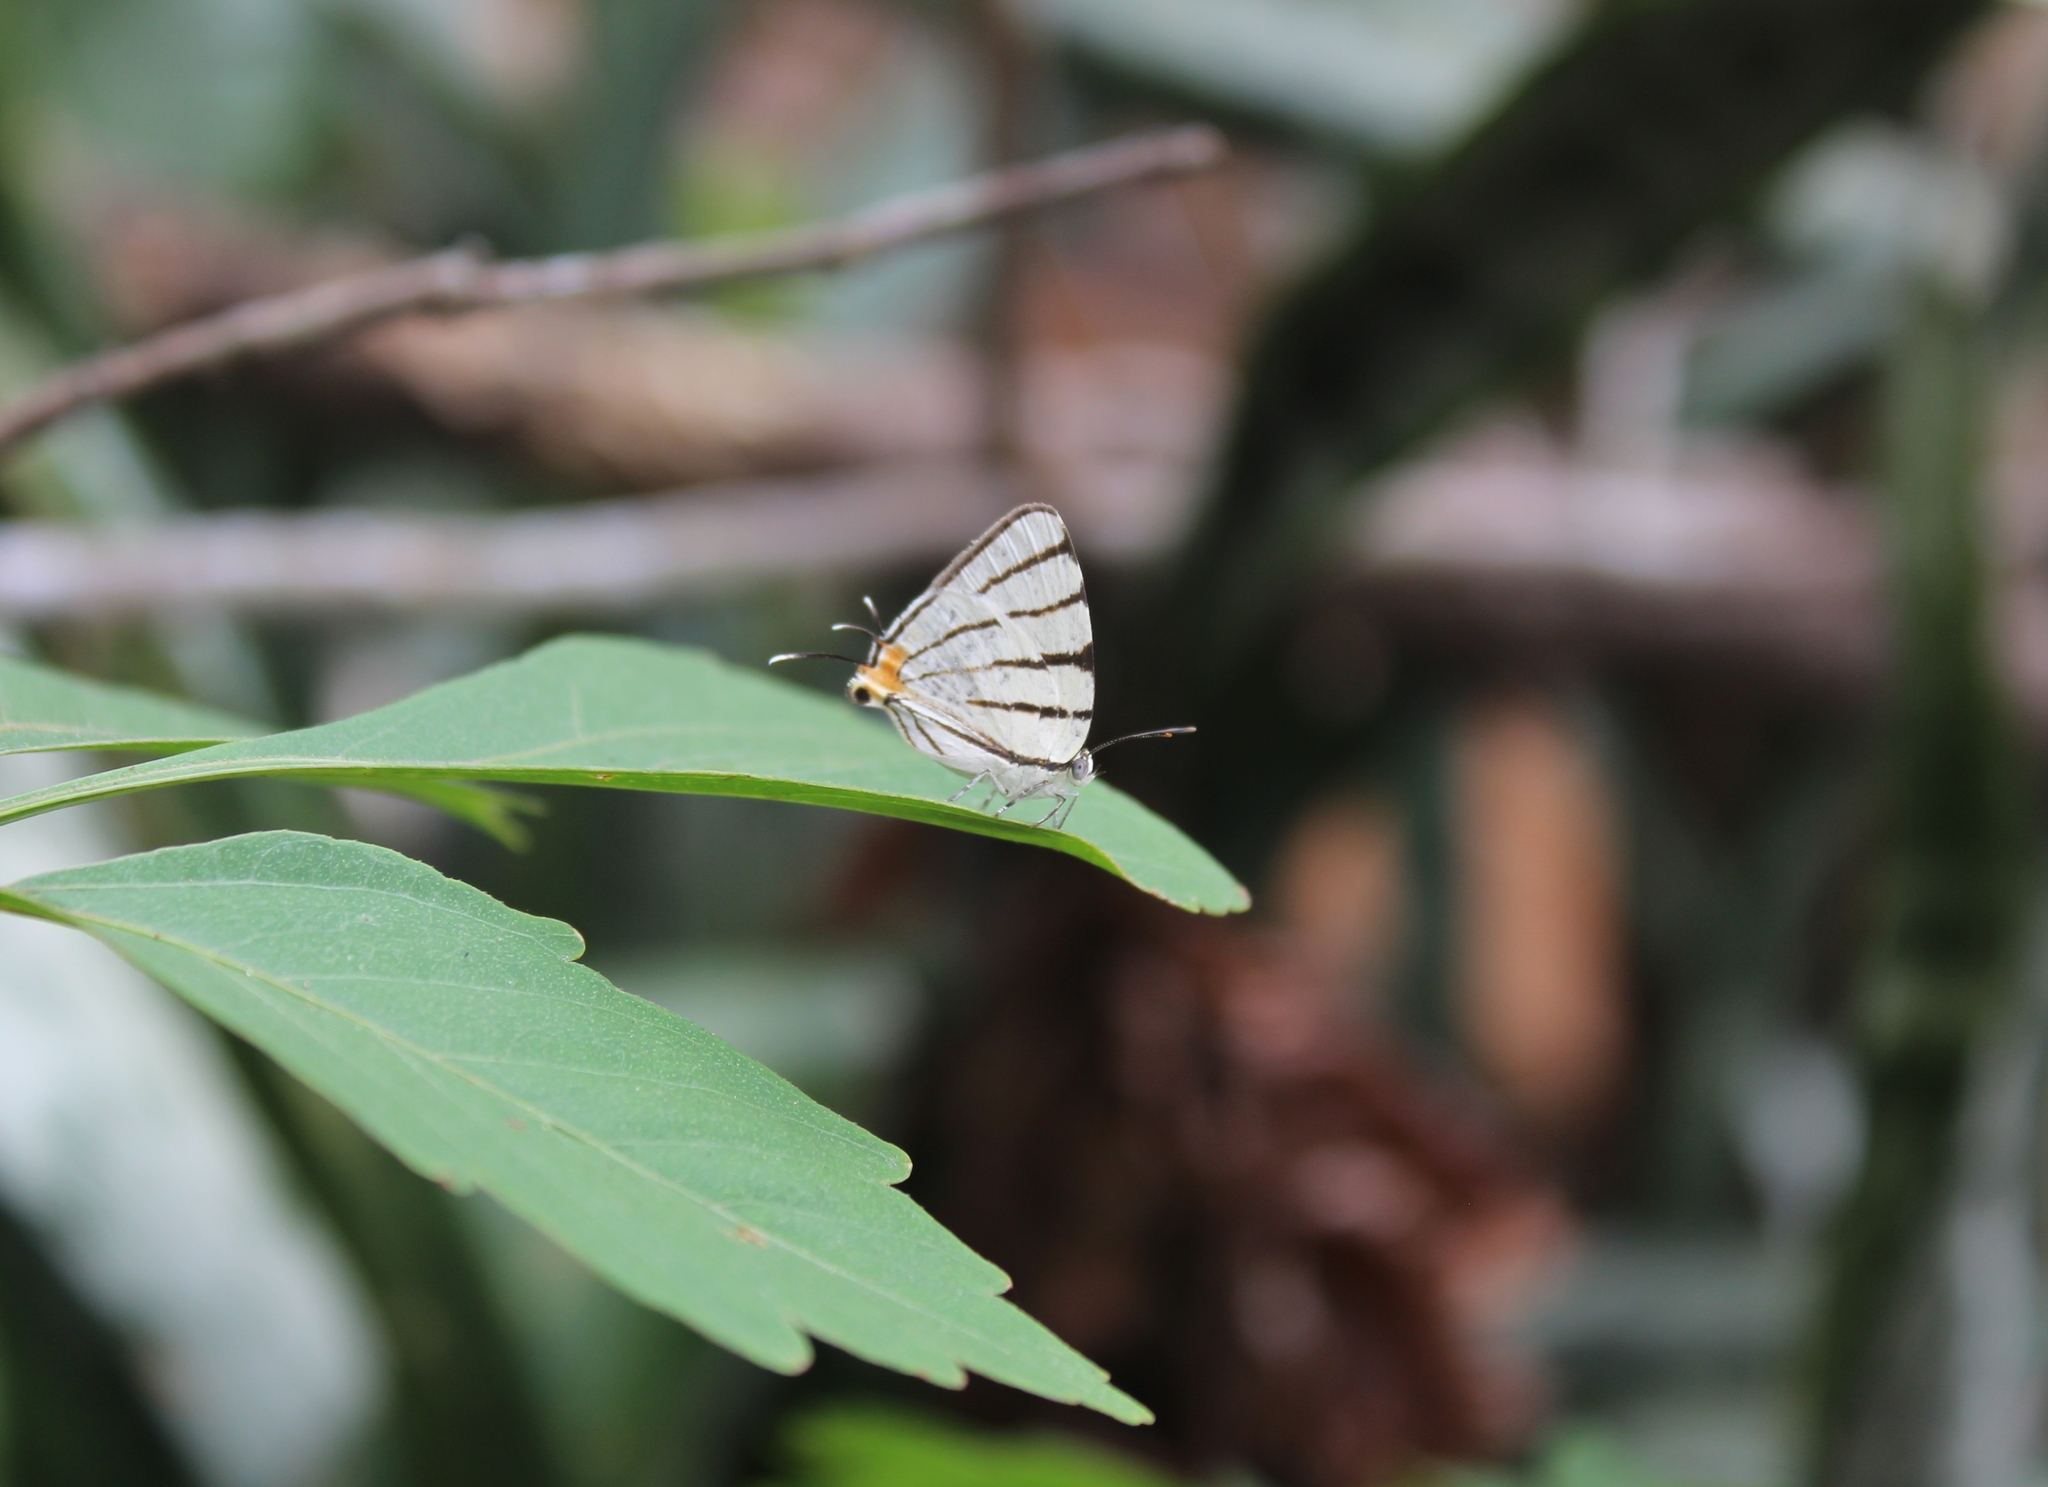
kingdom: Animalia
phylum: Arthropoda
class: Insecta
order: Lepidoptera
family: Lycaenidae
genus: Arawacus
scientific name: Arawacus sito
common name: Fine-lined hairstreak
